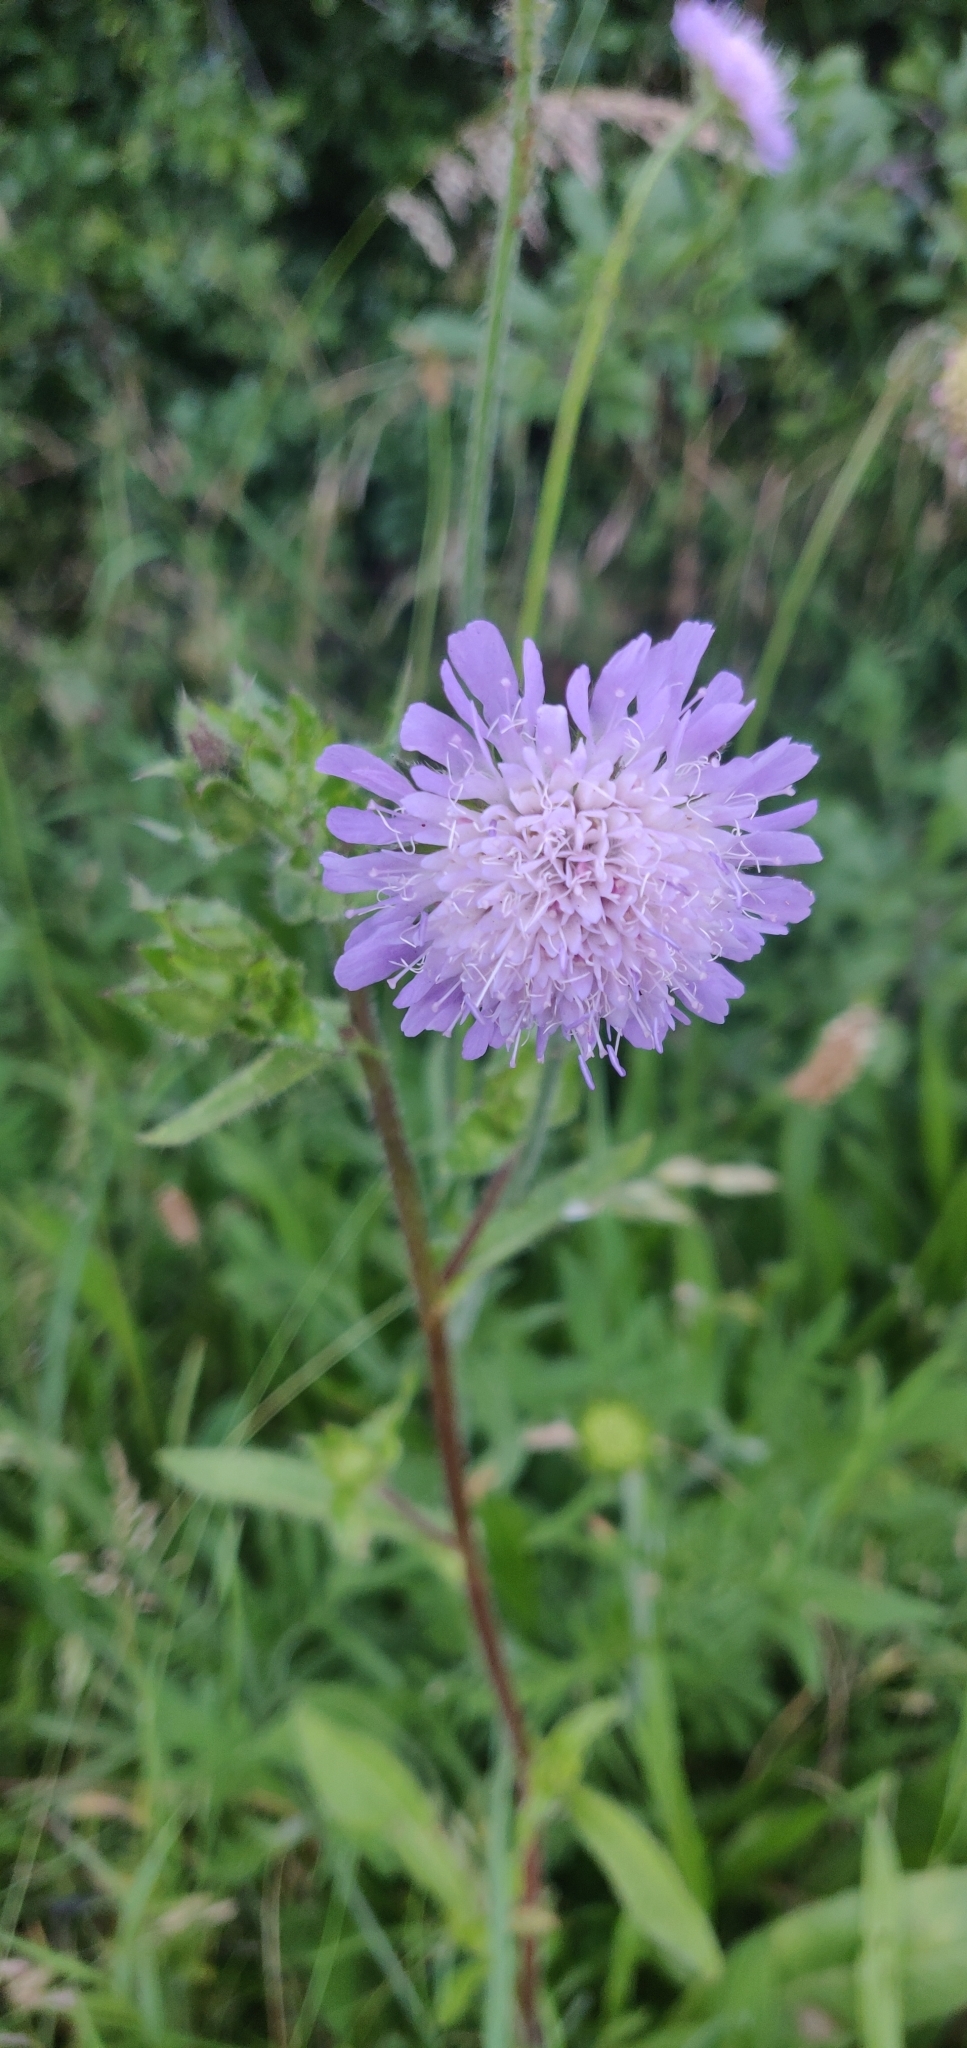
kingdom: Plantae
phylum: Tracheophyta
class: Magnoliopsida
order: Dipsacales
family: Caprifoliaceae
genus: Knautia
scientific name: Knautia arvensis
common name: Field scabiosa
